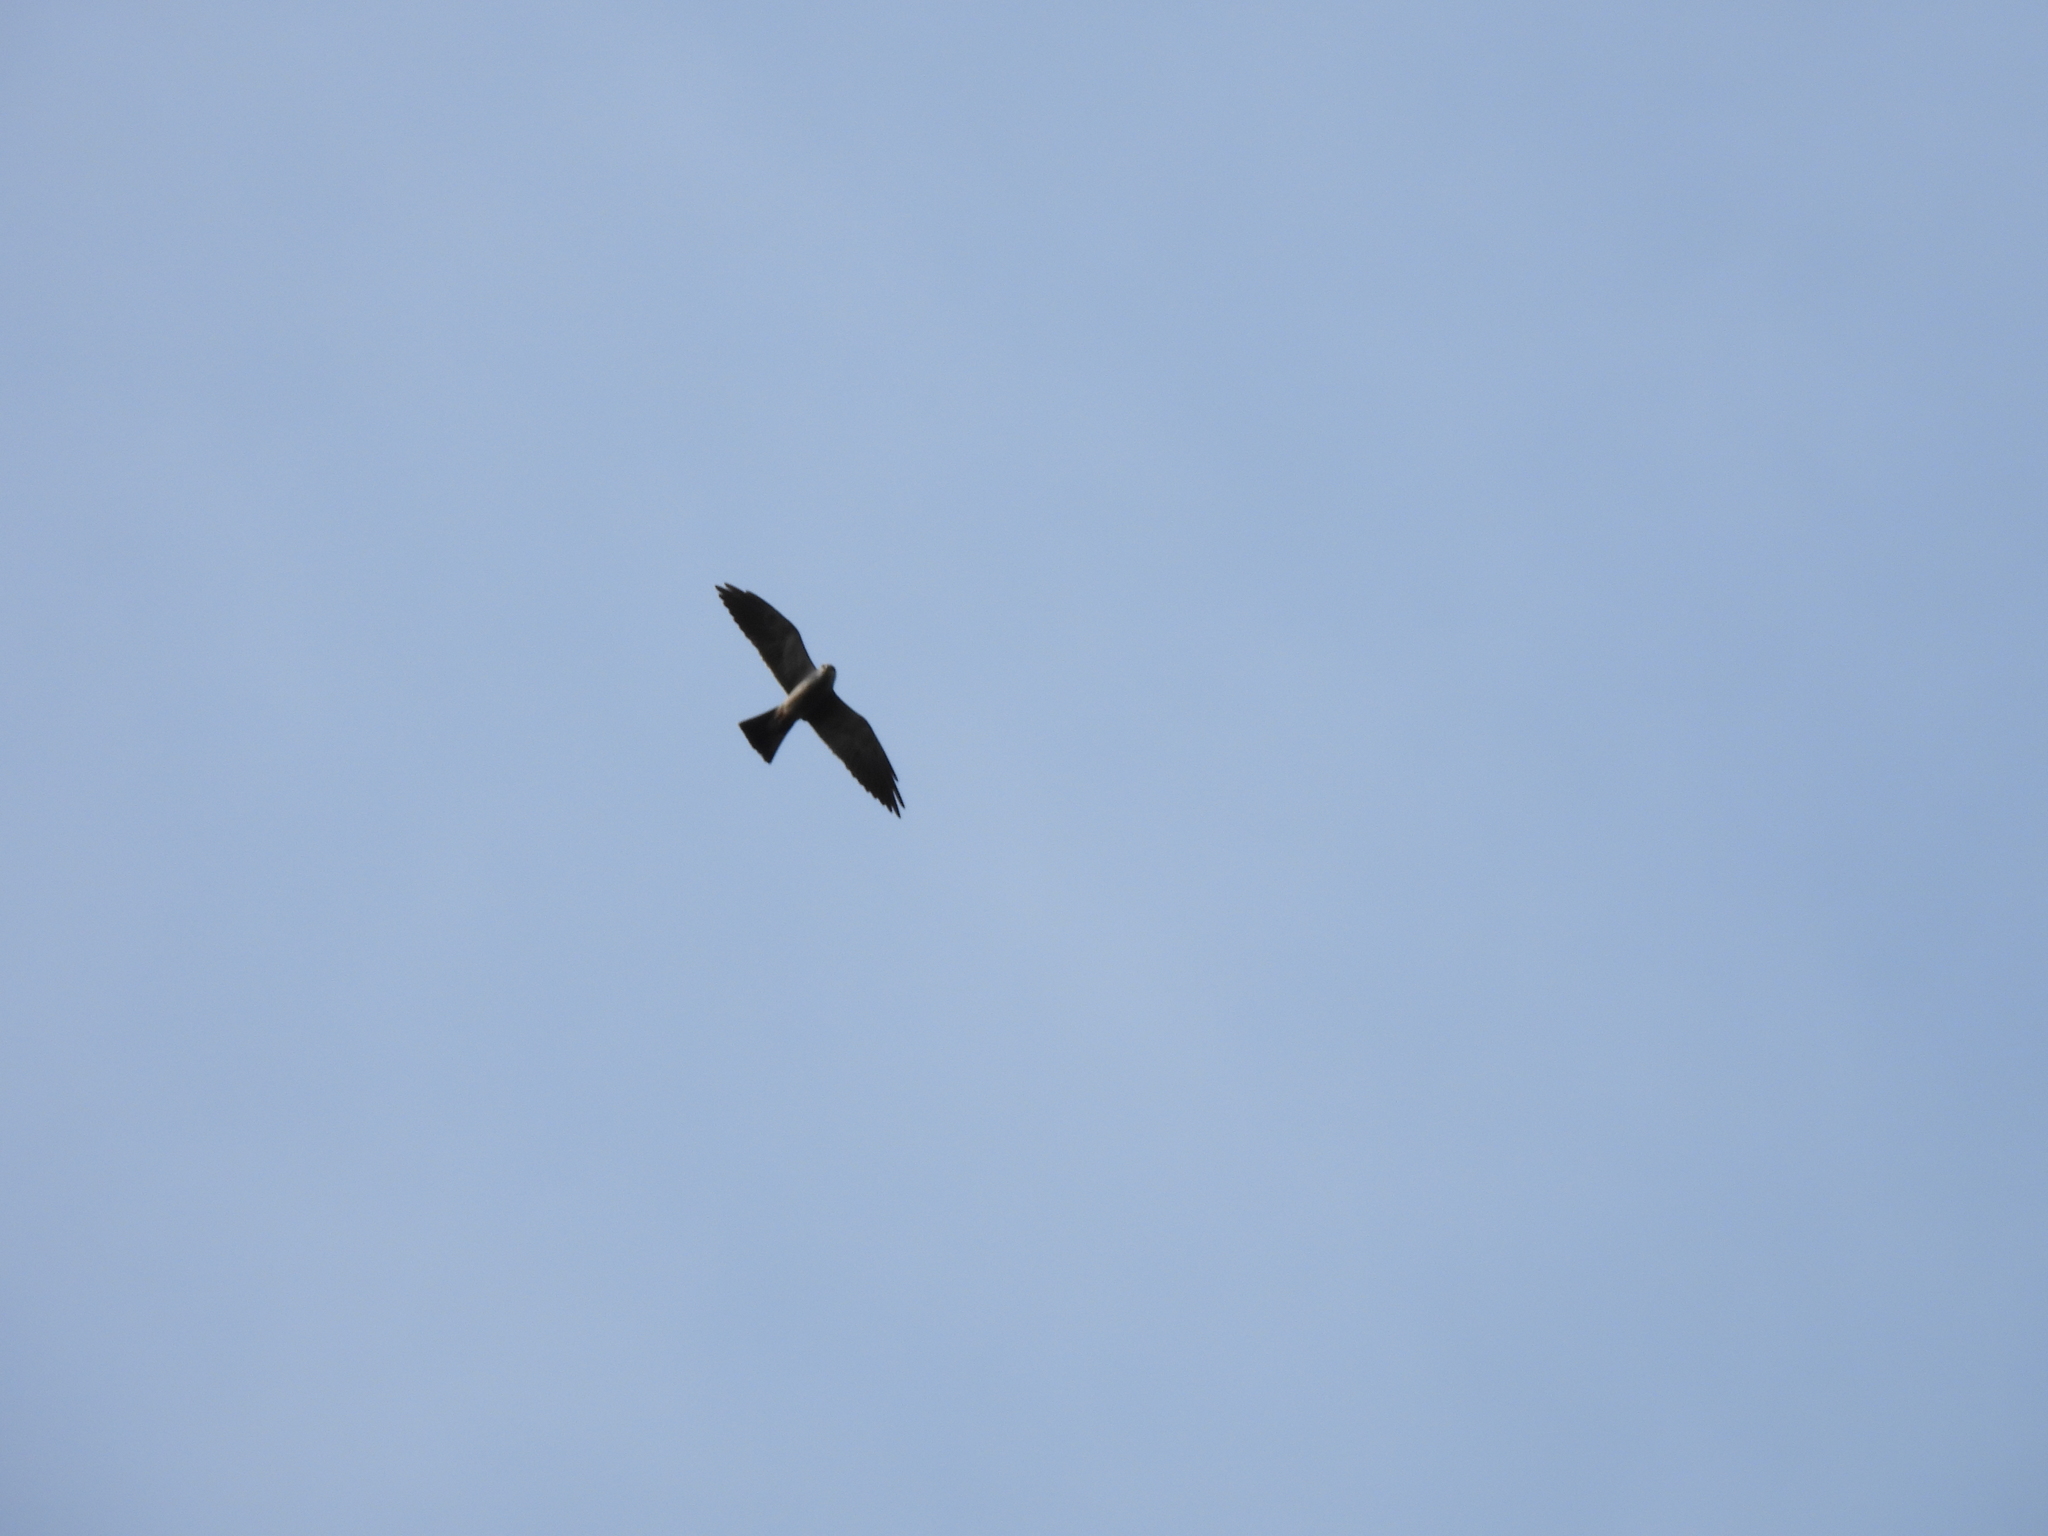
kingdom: Animalia
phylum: Chordata
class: Aves
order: Accipitriformes
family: Accipitridae
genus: Ictinia
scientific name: Ictinia mississippiensis
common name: Mississippi kite
